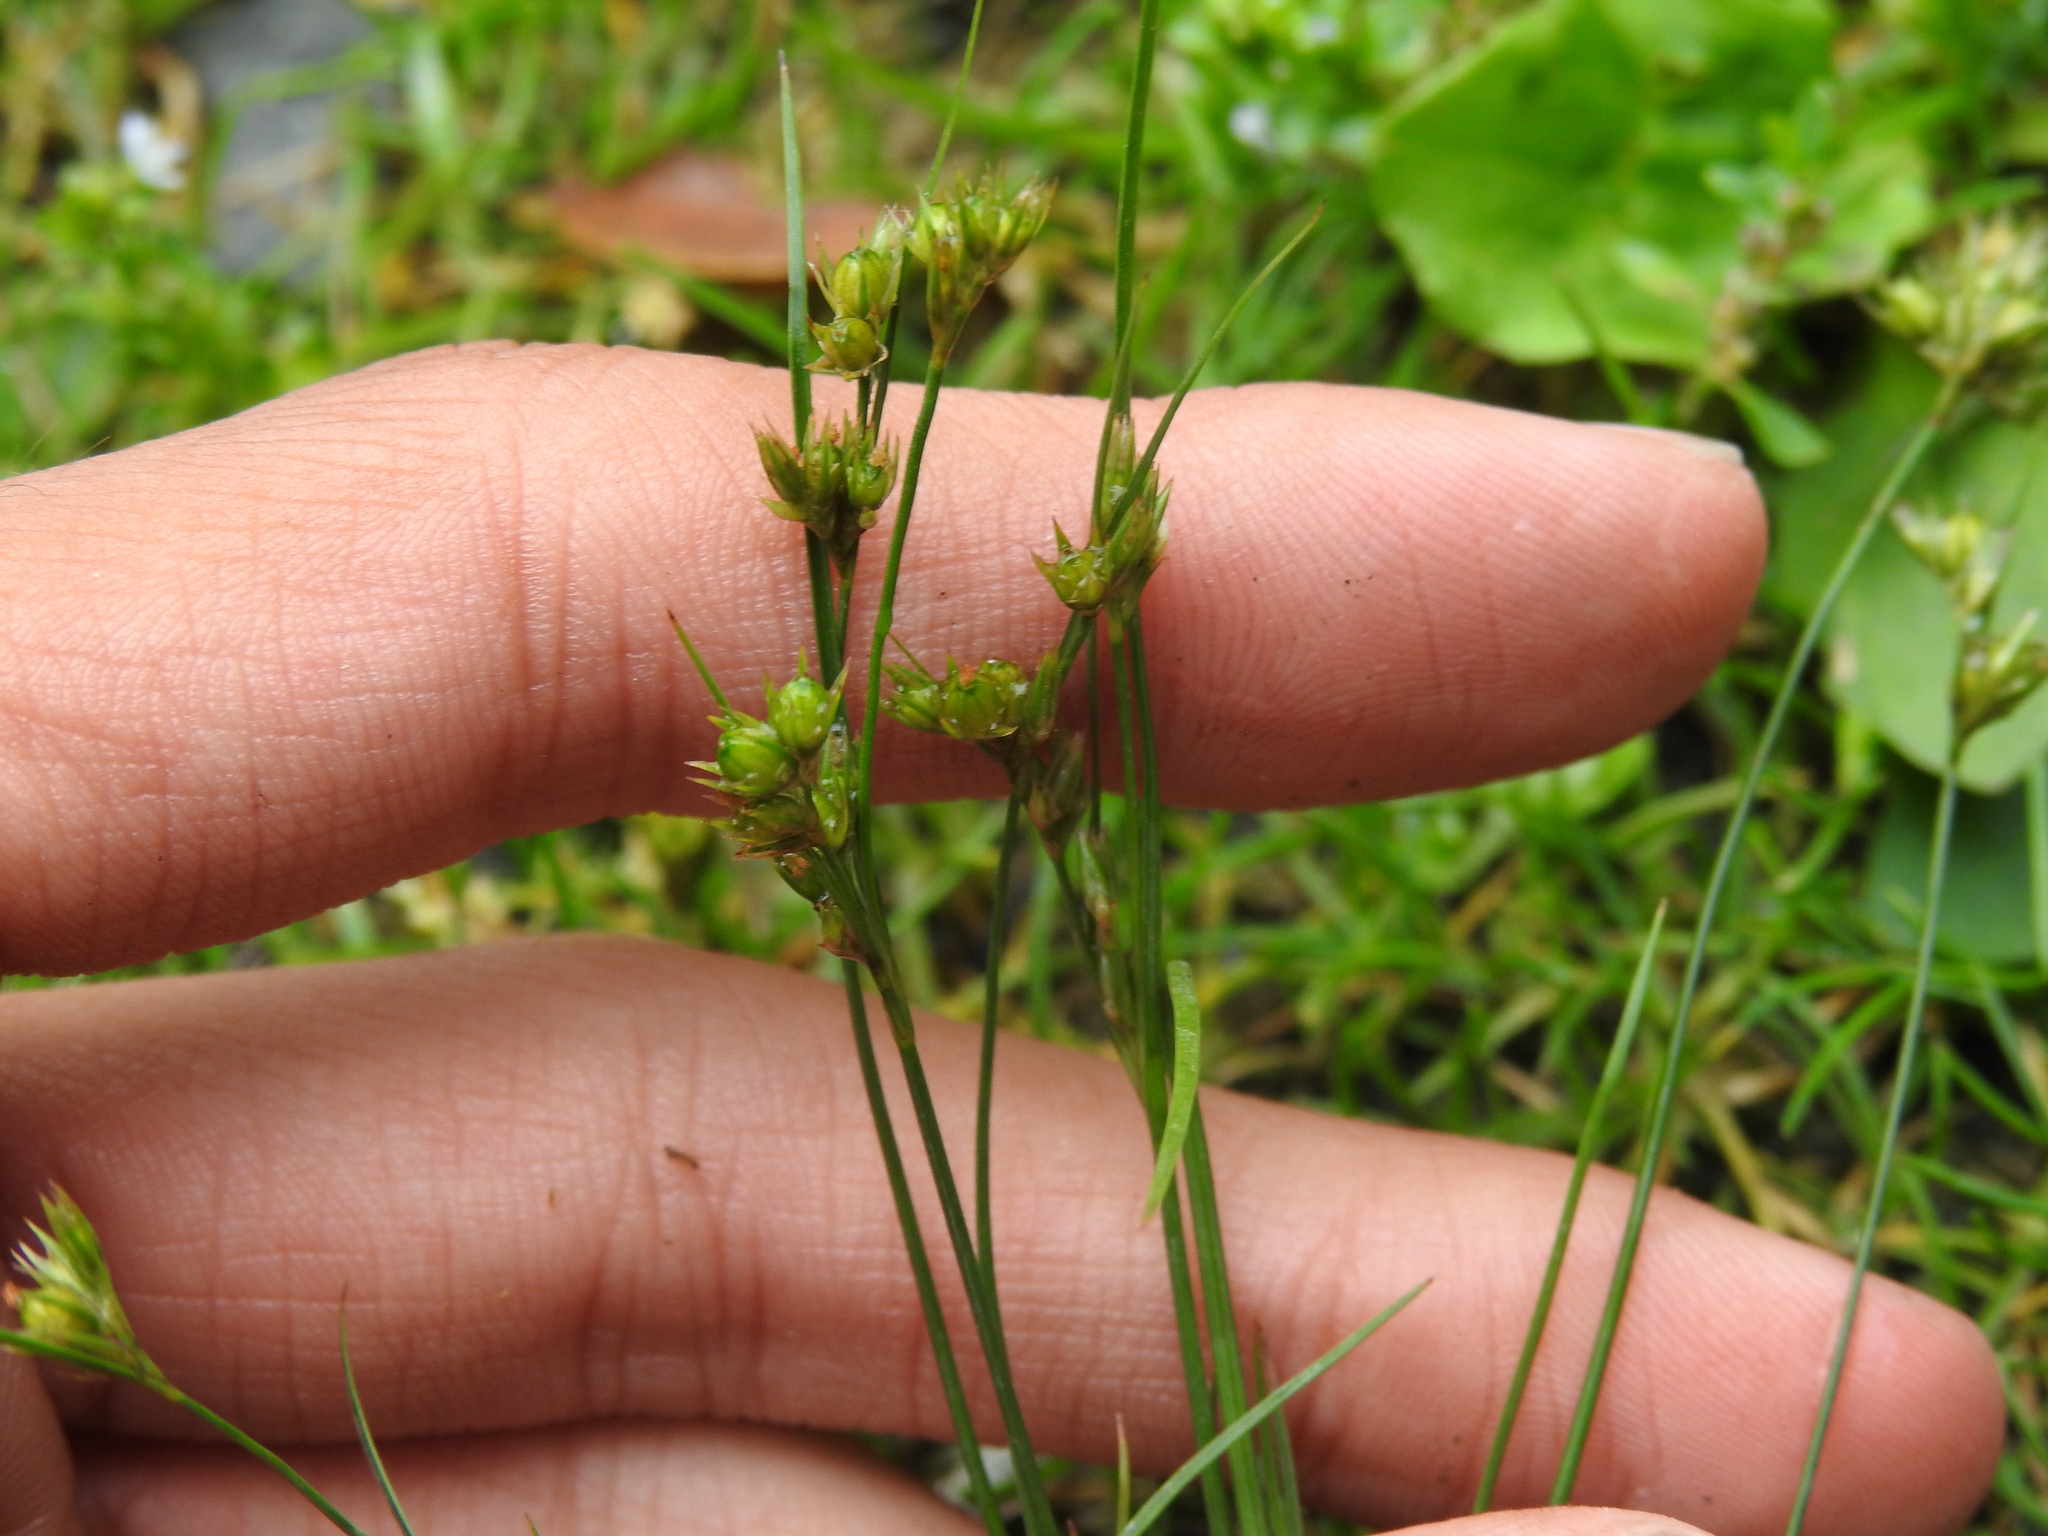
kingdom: Plantae
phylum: Tracheophyta
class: Liliopsida
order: Poales
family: Juncaceae
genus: Juncus
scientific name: Juncus tenuis
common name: Slender rush
